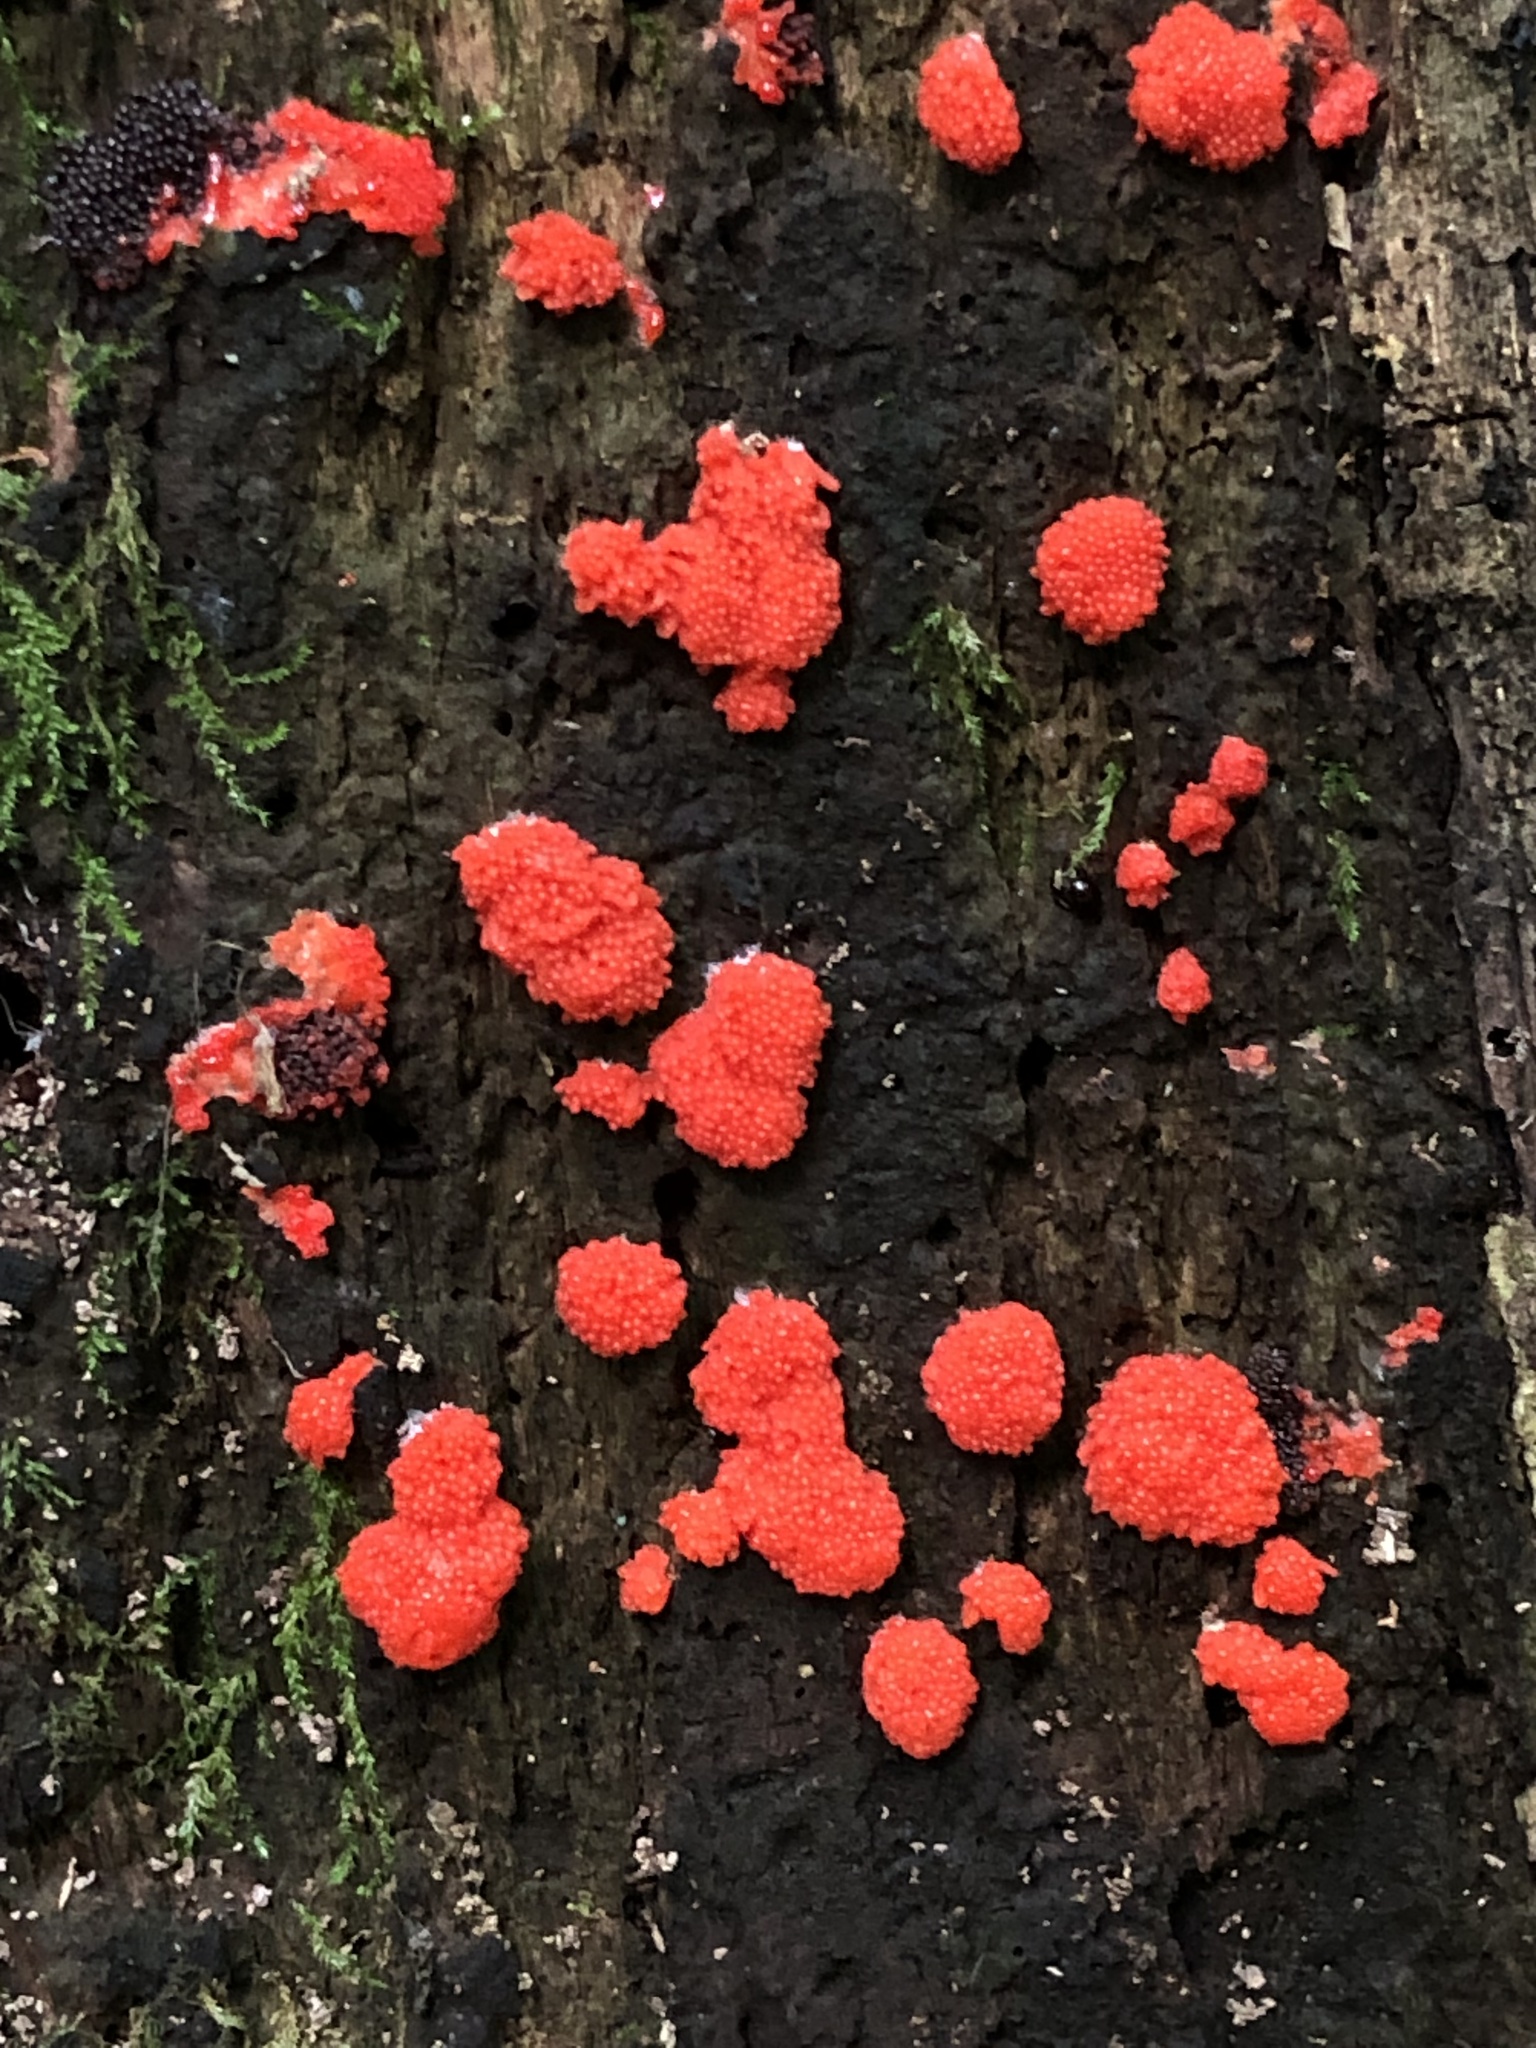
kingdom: Protozoa
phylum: Mycetozoa
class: Myxomycetes
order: Cribrariales
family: Tubiferaceae
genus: Tubifera
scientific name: Tubifera ferruginosa
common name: Red raspberry slime mold
